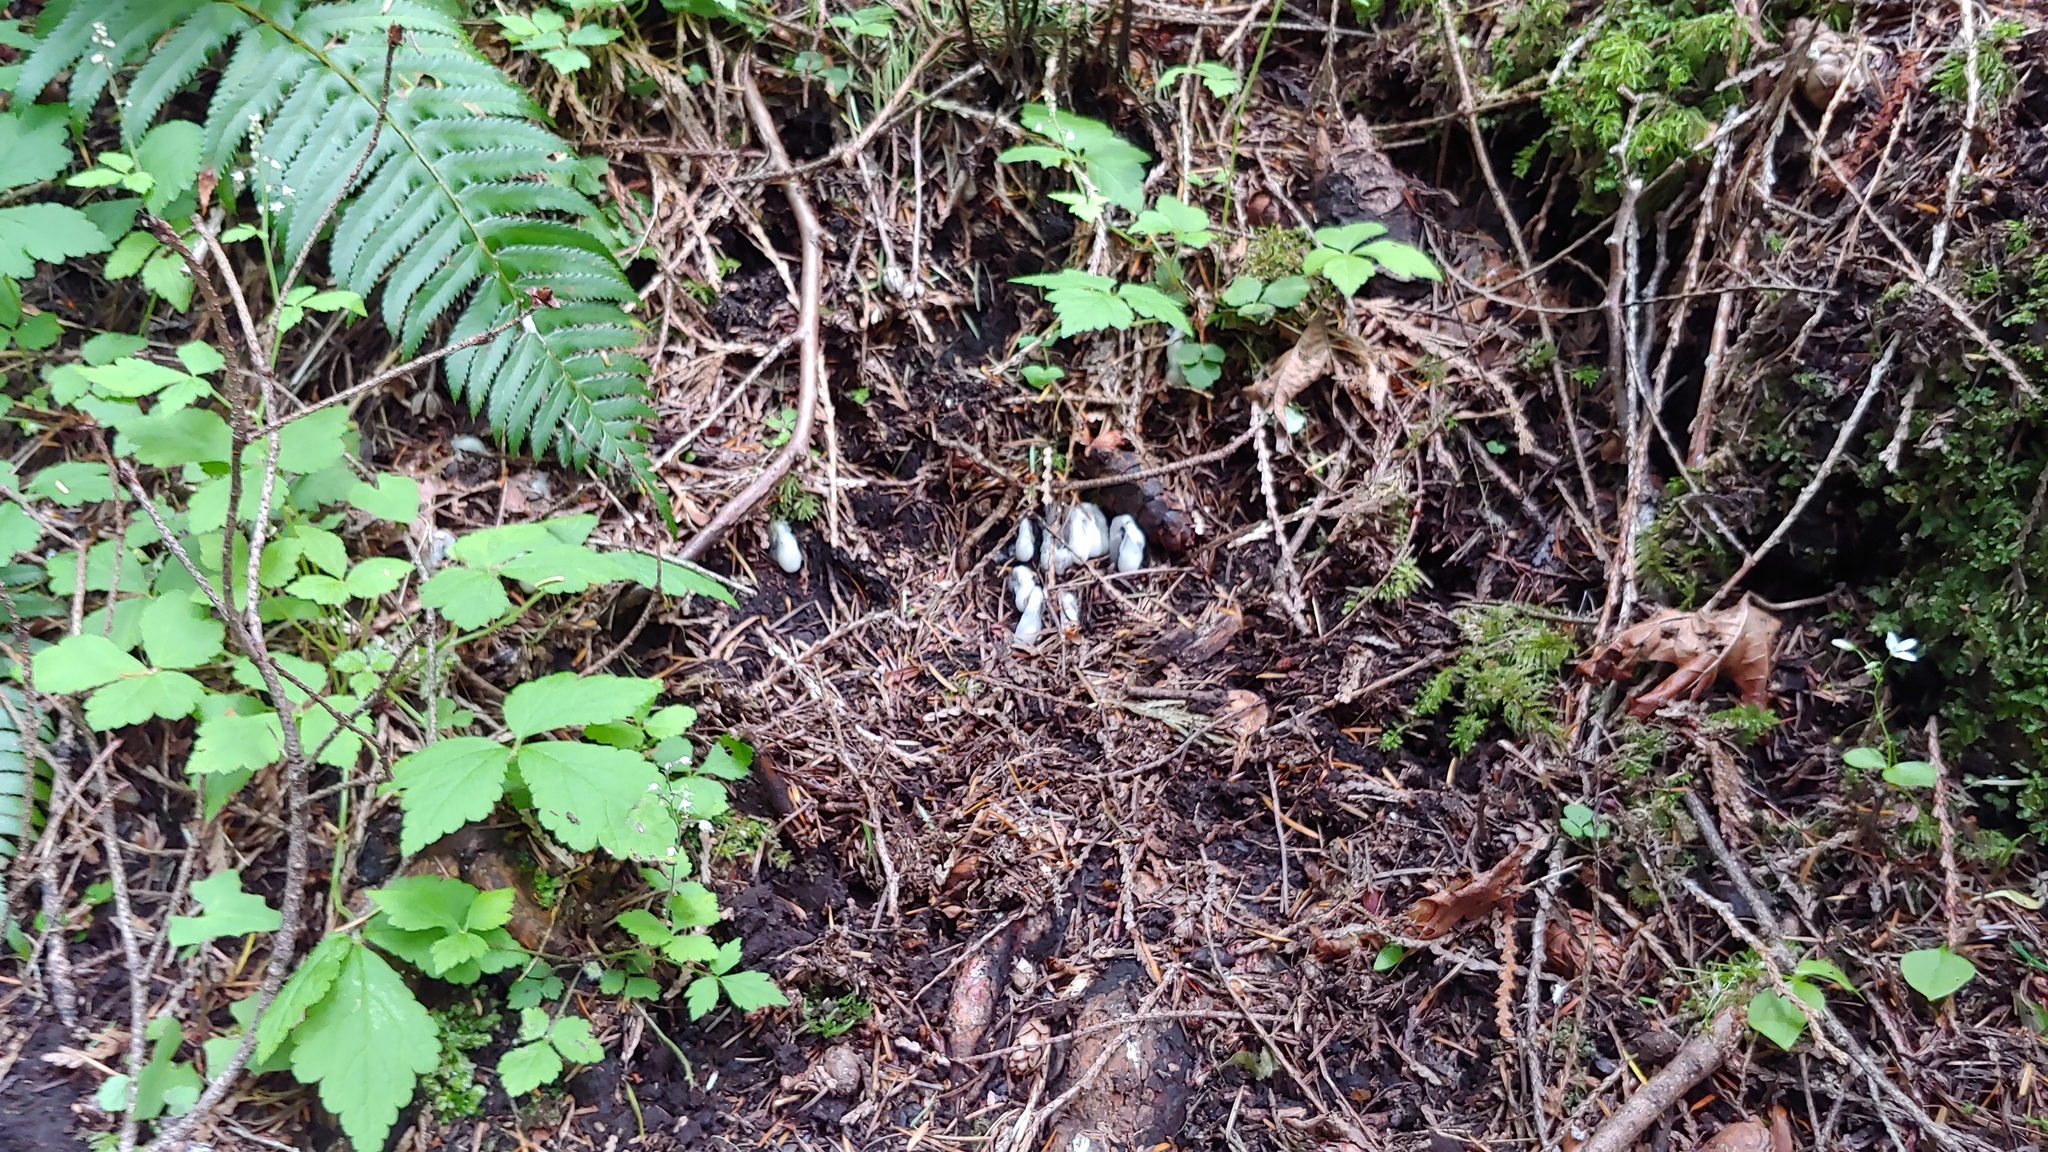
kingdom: Plantae
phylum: Tracheophyta
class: Magnoliopsida
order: Ericales
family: Ericaceae
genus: Monotropa
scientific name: Monotropa uniflora
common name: Convulsion root
